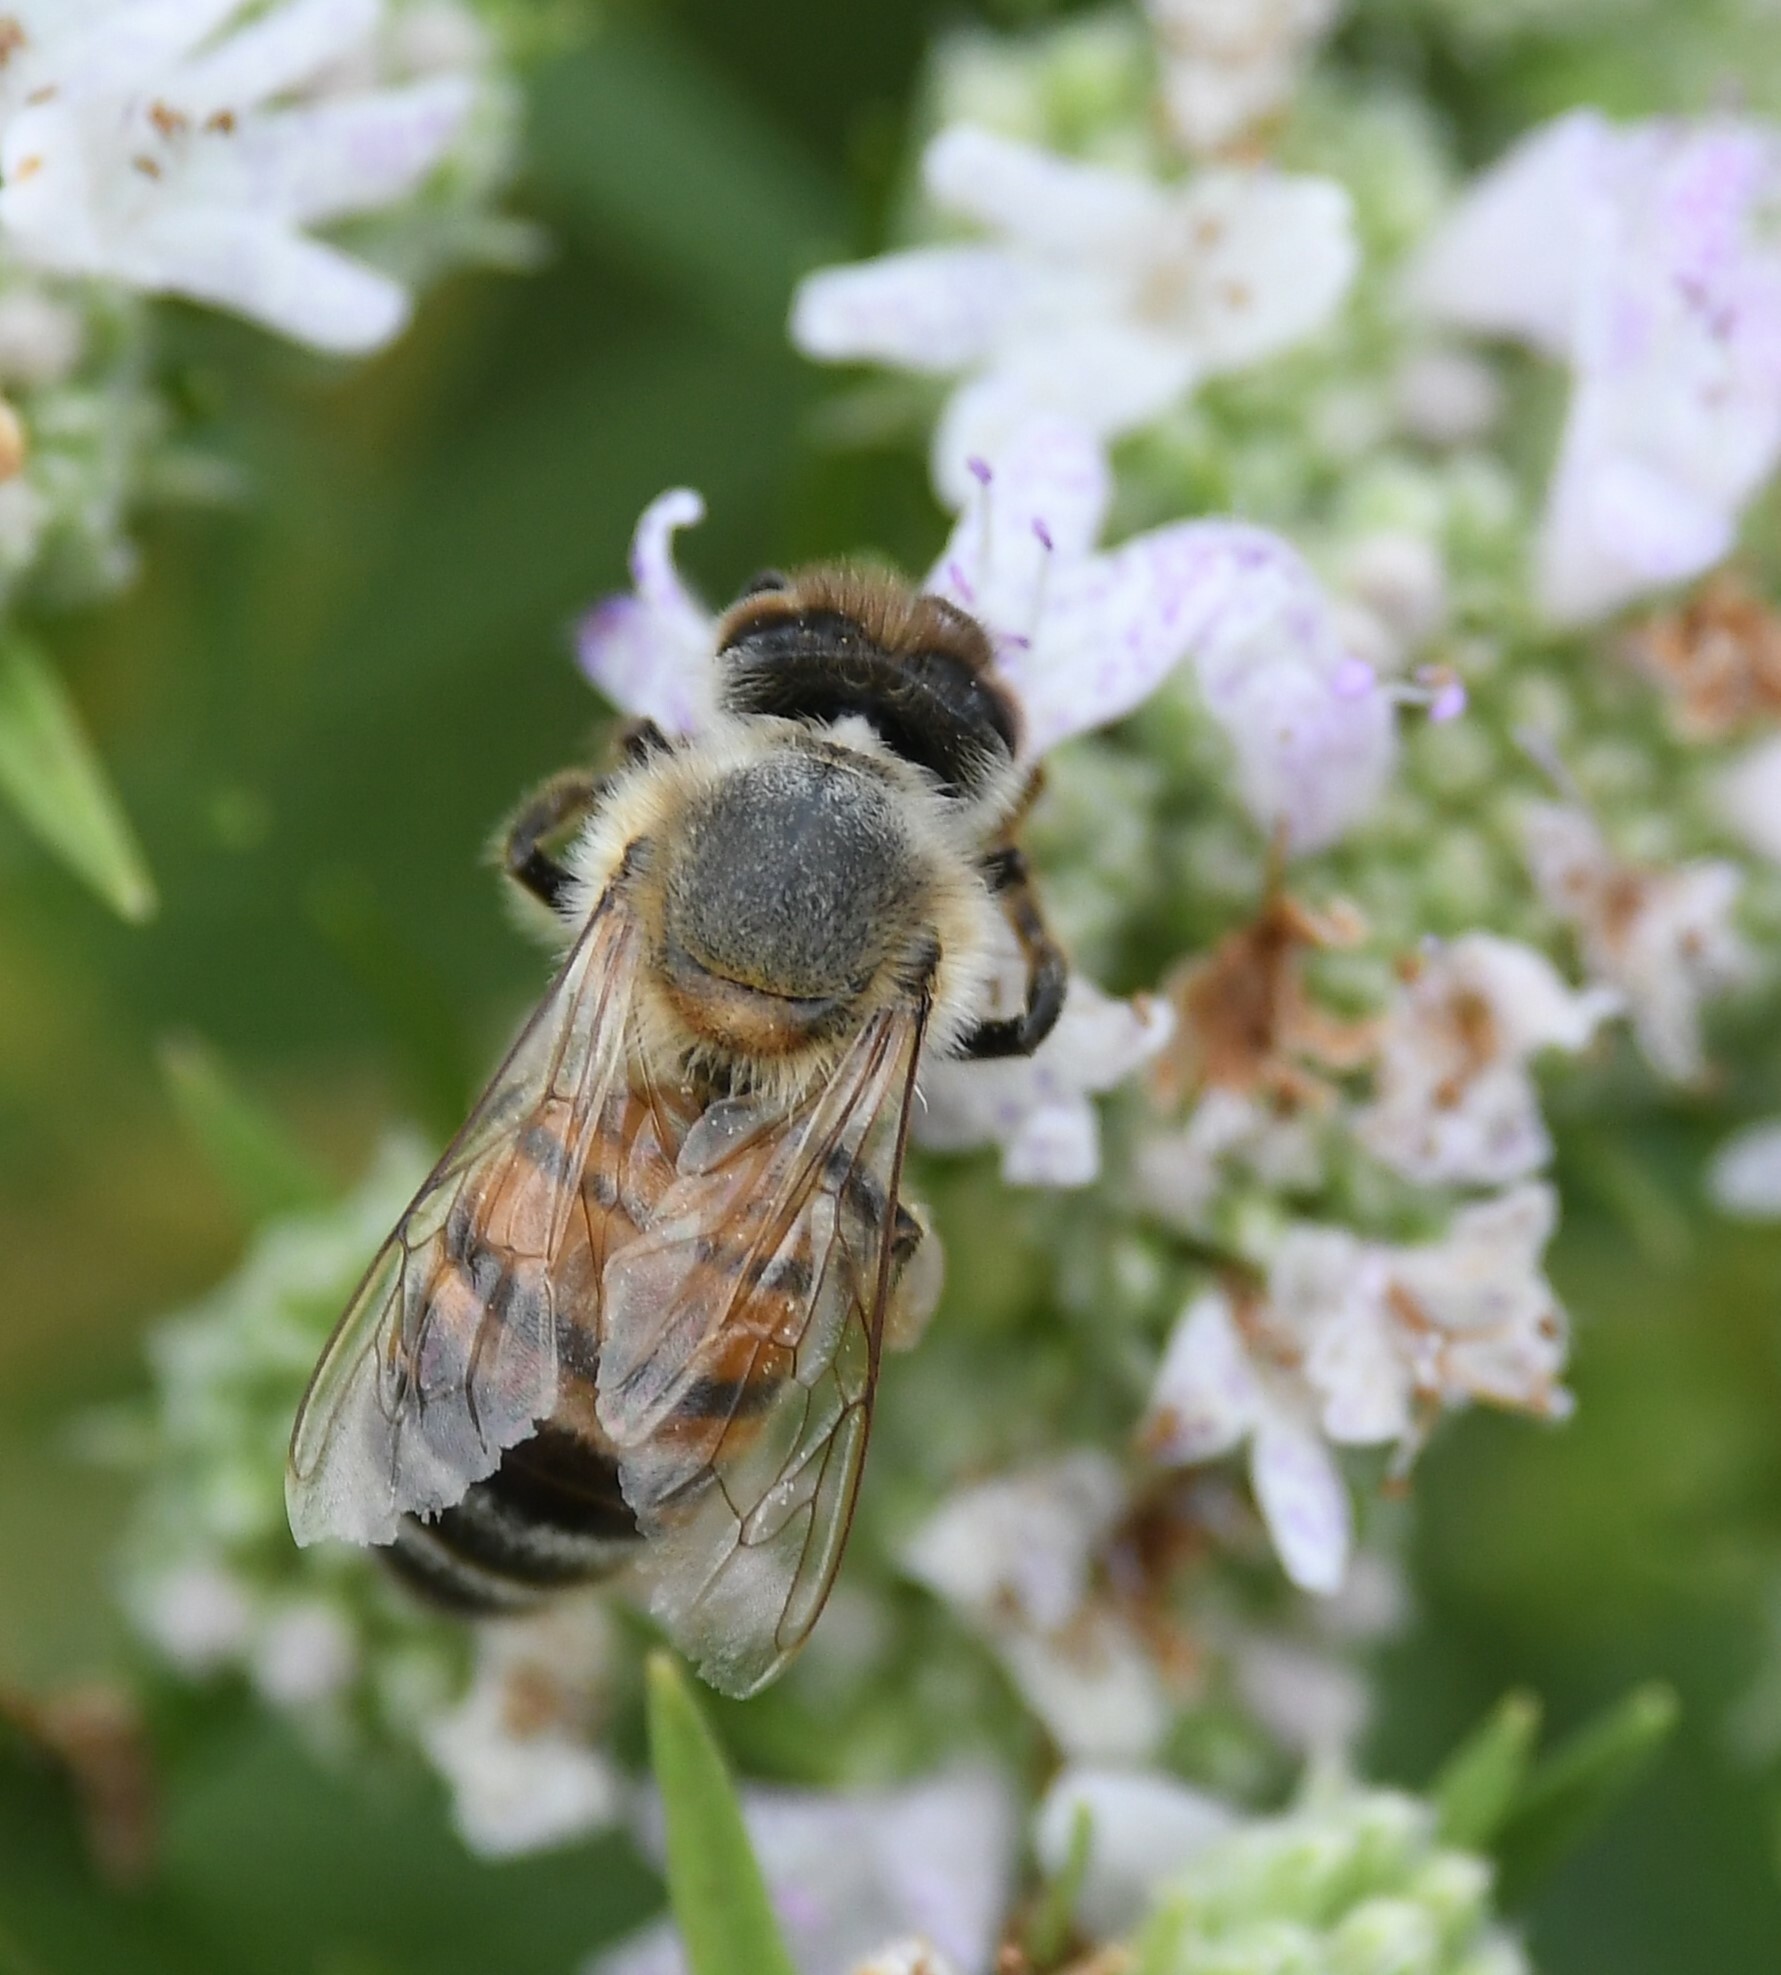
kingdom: Animalia
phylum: Arthropoda
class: Insecta
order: Hymenoptera
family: Apidae
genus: Apis
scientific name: Apis mellifera
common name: Honey bee
